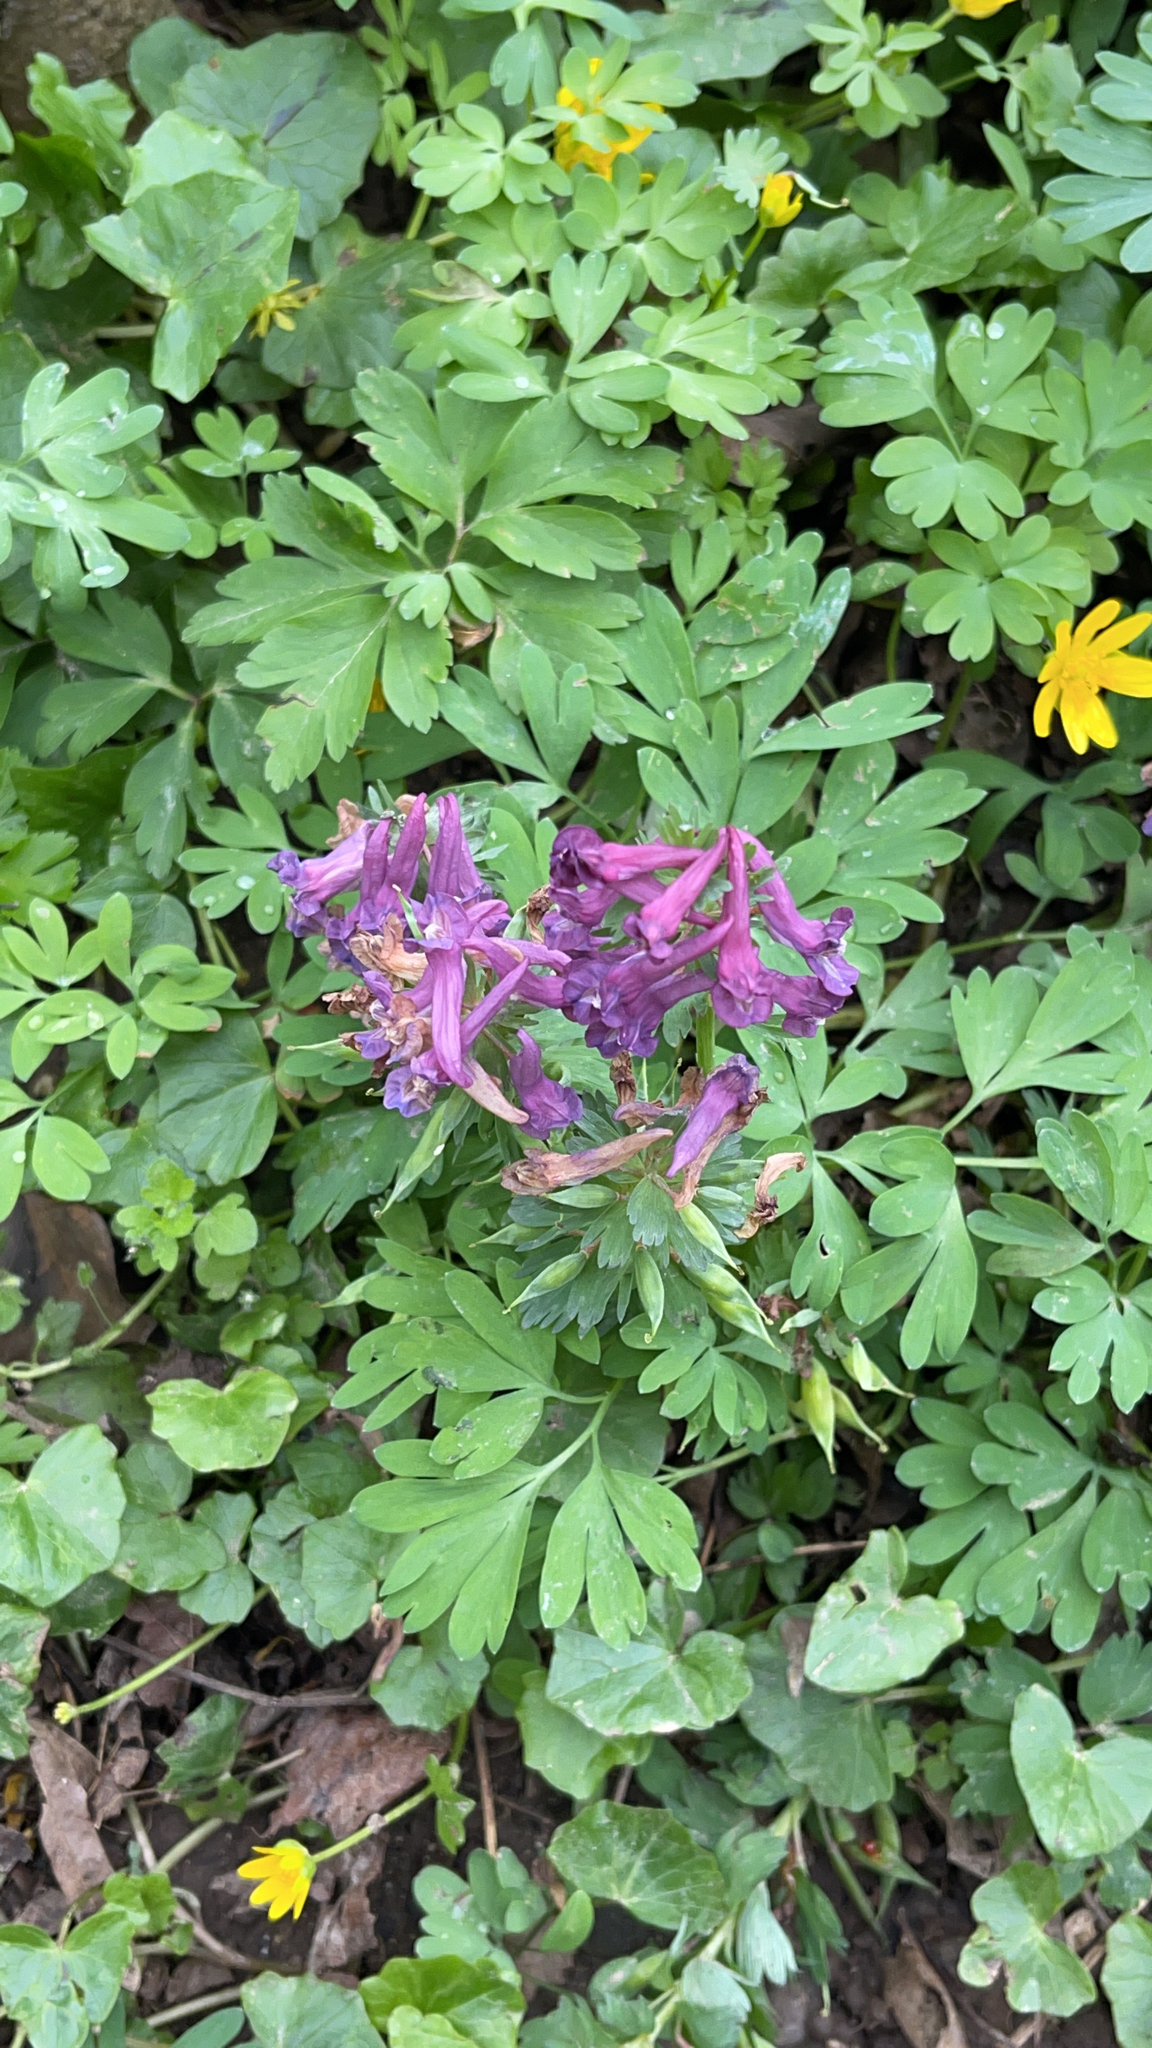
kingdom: Plantae
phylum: Tracheophyta
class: Magnoliopsida
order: Ranunculales
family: Papaveraceae
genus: Corydalis
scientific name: Corydalis solida
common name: Bird-in-a-bush
